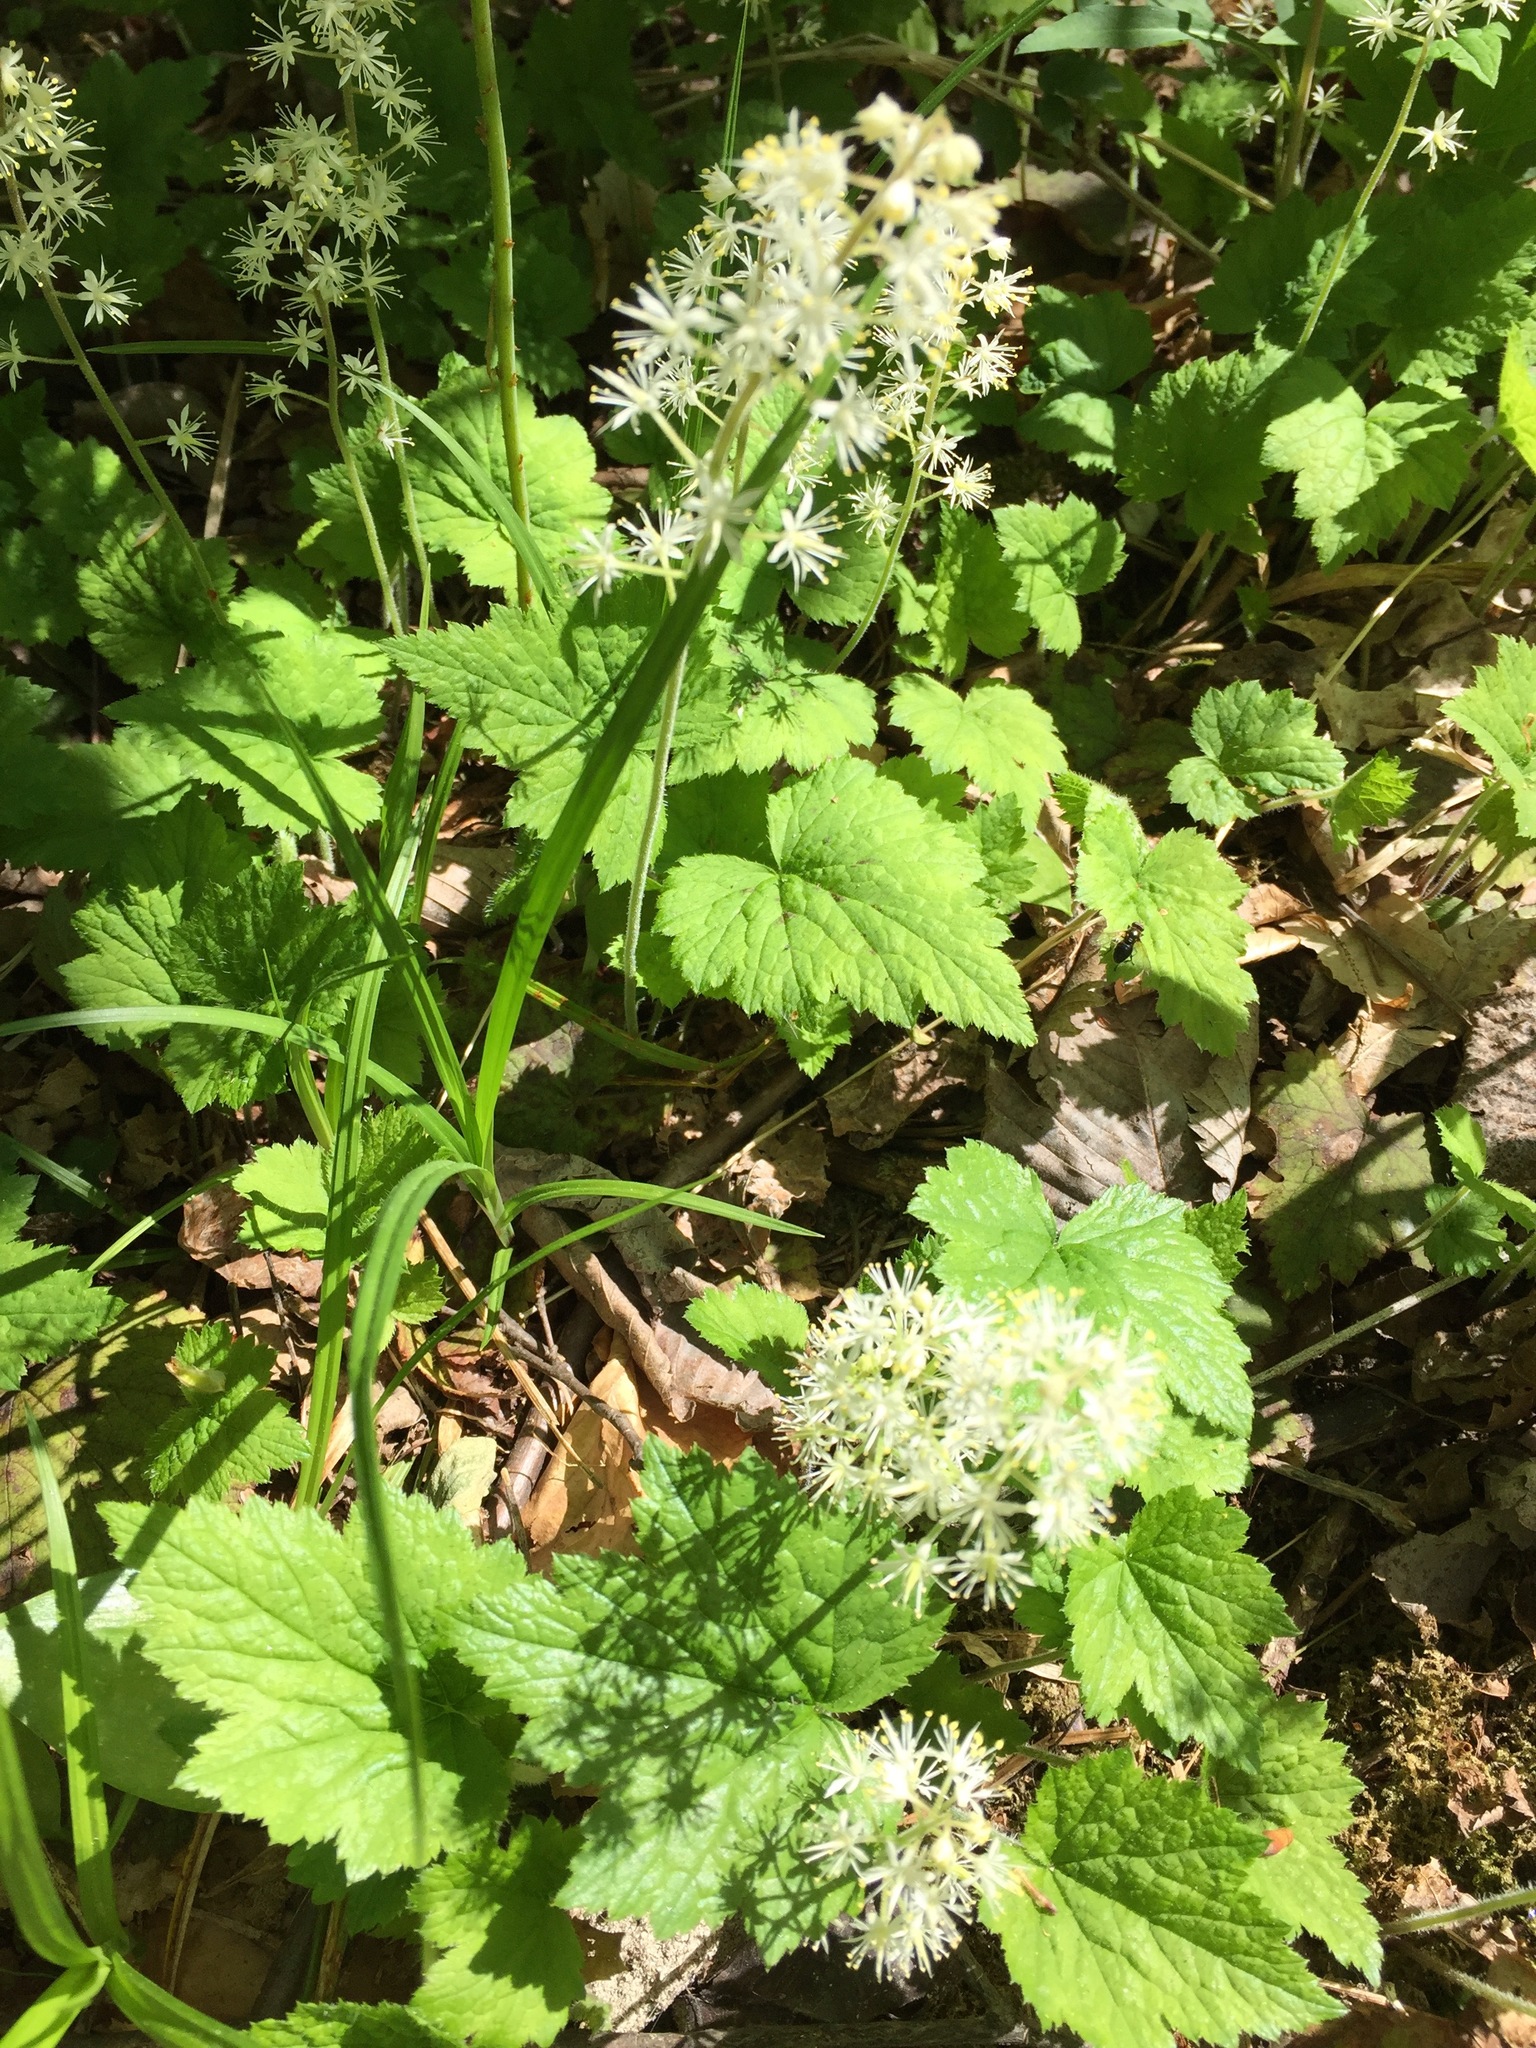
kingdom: Plantae
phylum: Tracheophyta
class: Magnoliopsida
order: Saxifragales
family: Saxifragaceae
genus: Tiarella
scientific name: Tiarella stolonifera
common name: Stoloniferous foamflower
